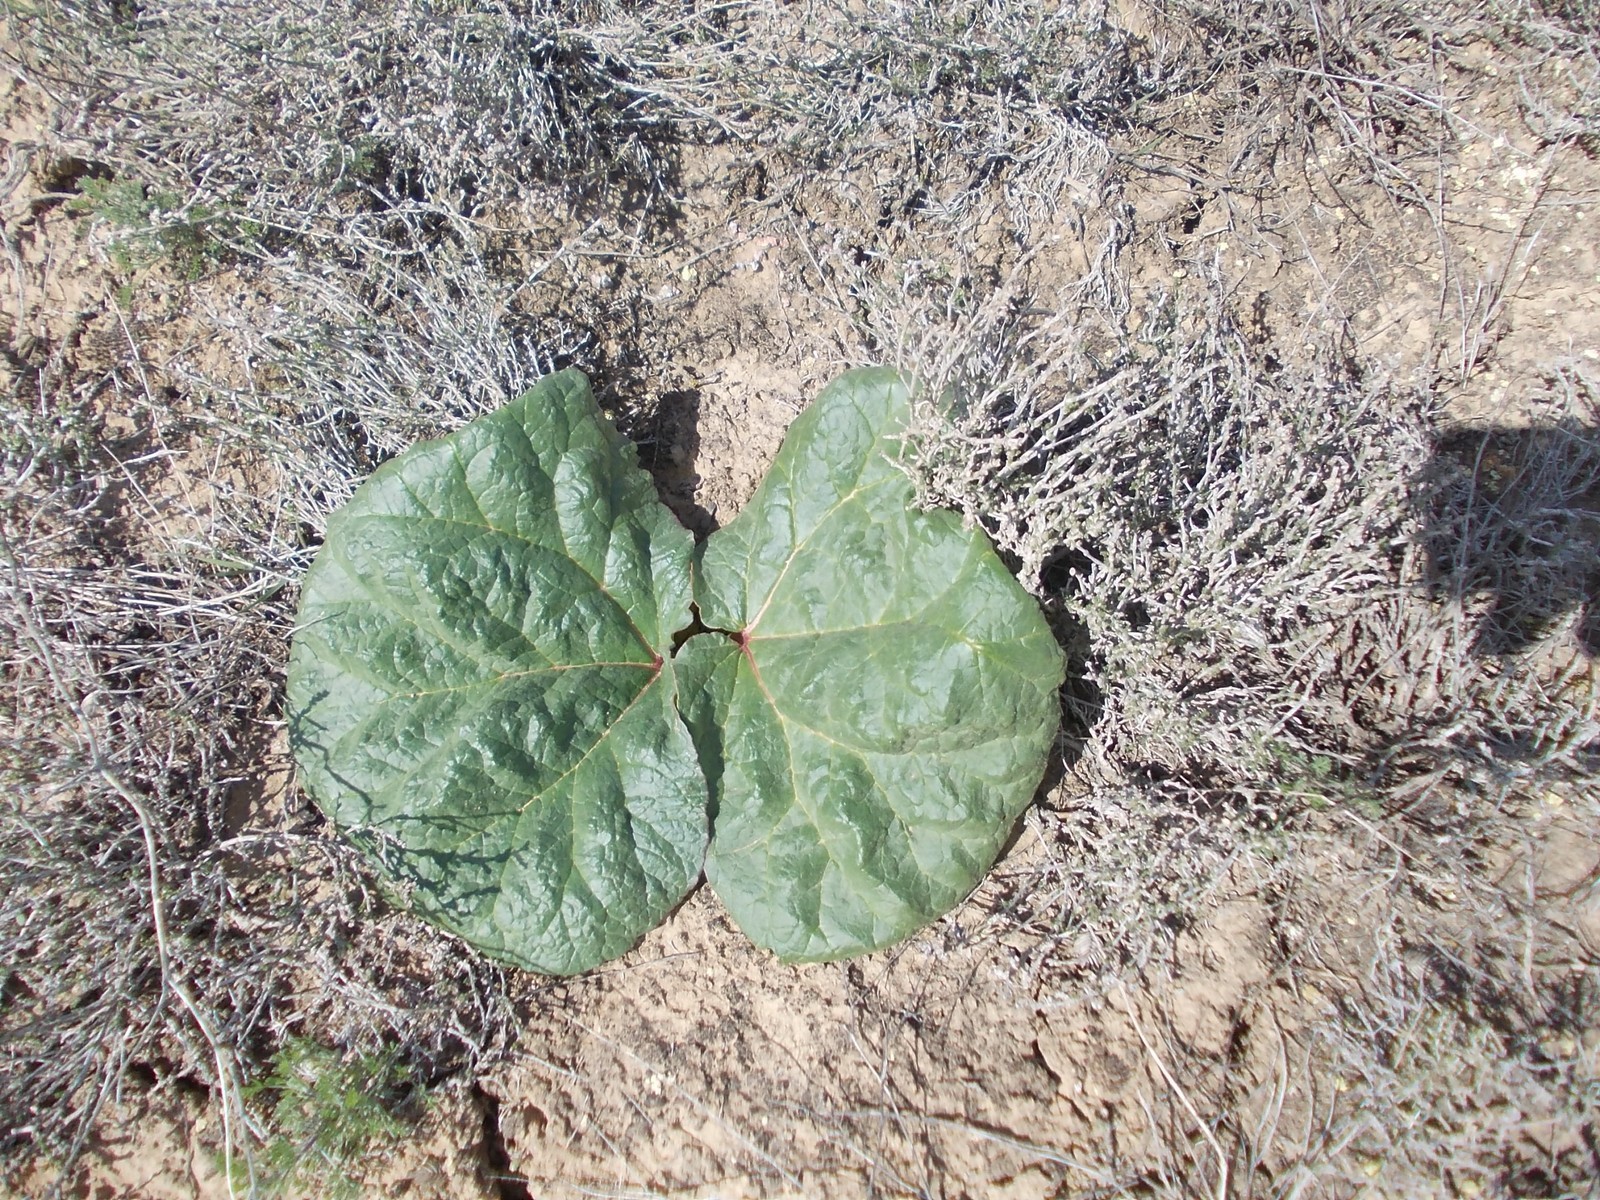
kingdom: Plantae
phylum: Tracheophyta
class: Magnoliopsida
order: Caryophyllales
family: Polygonaceae
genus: Rheum
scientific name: Rheum tataricum
